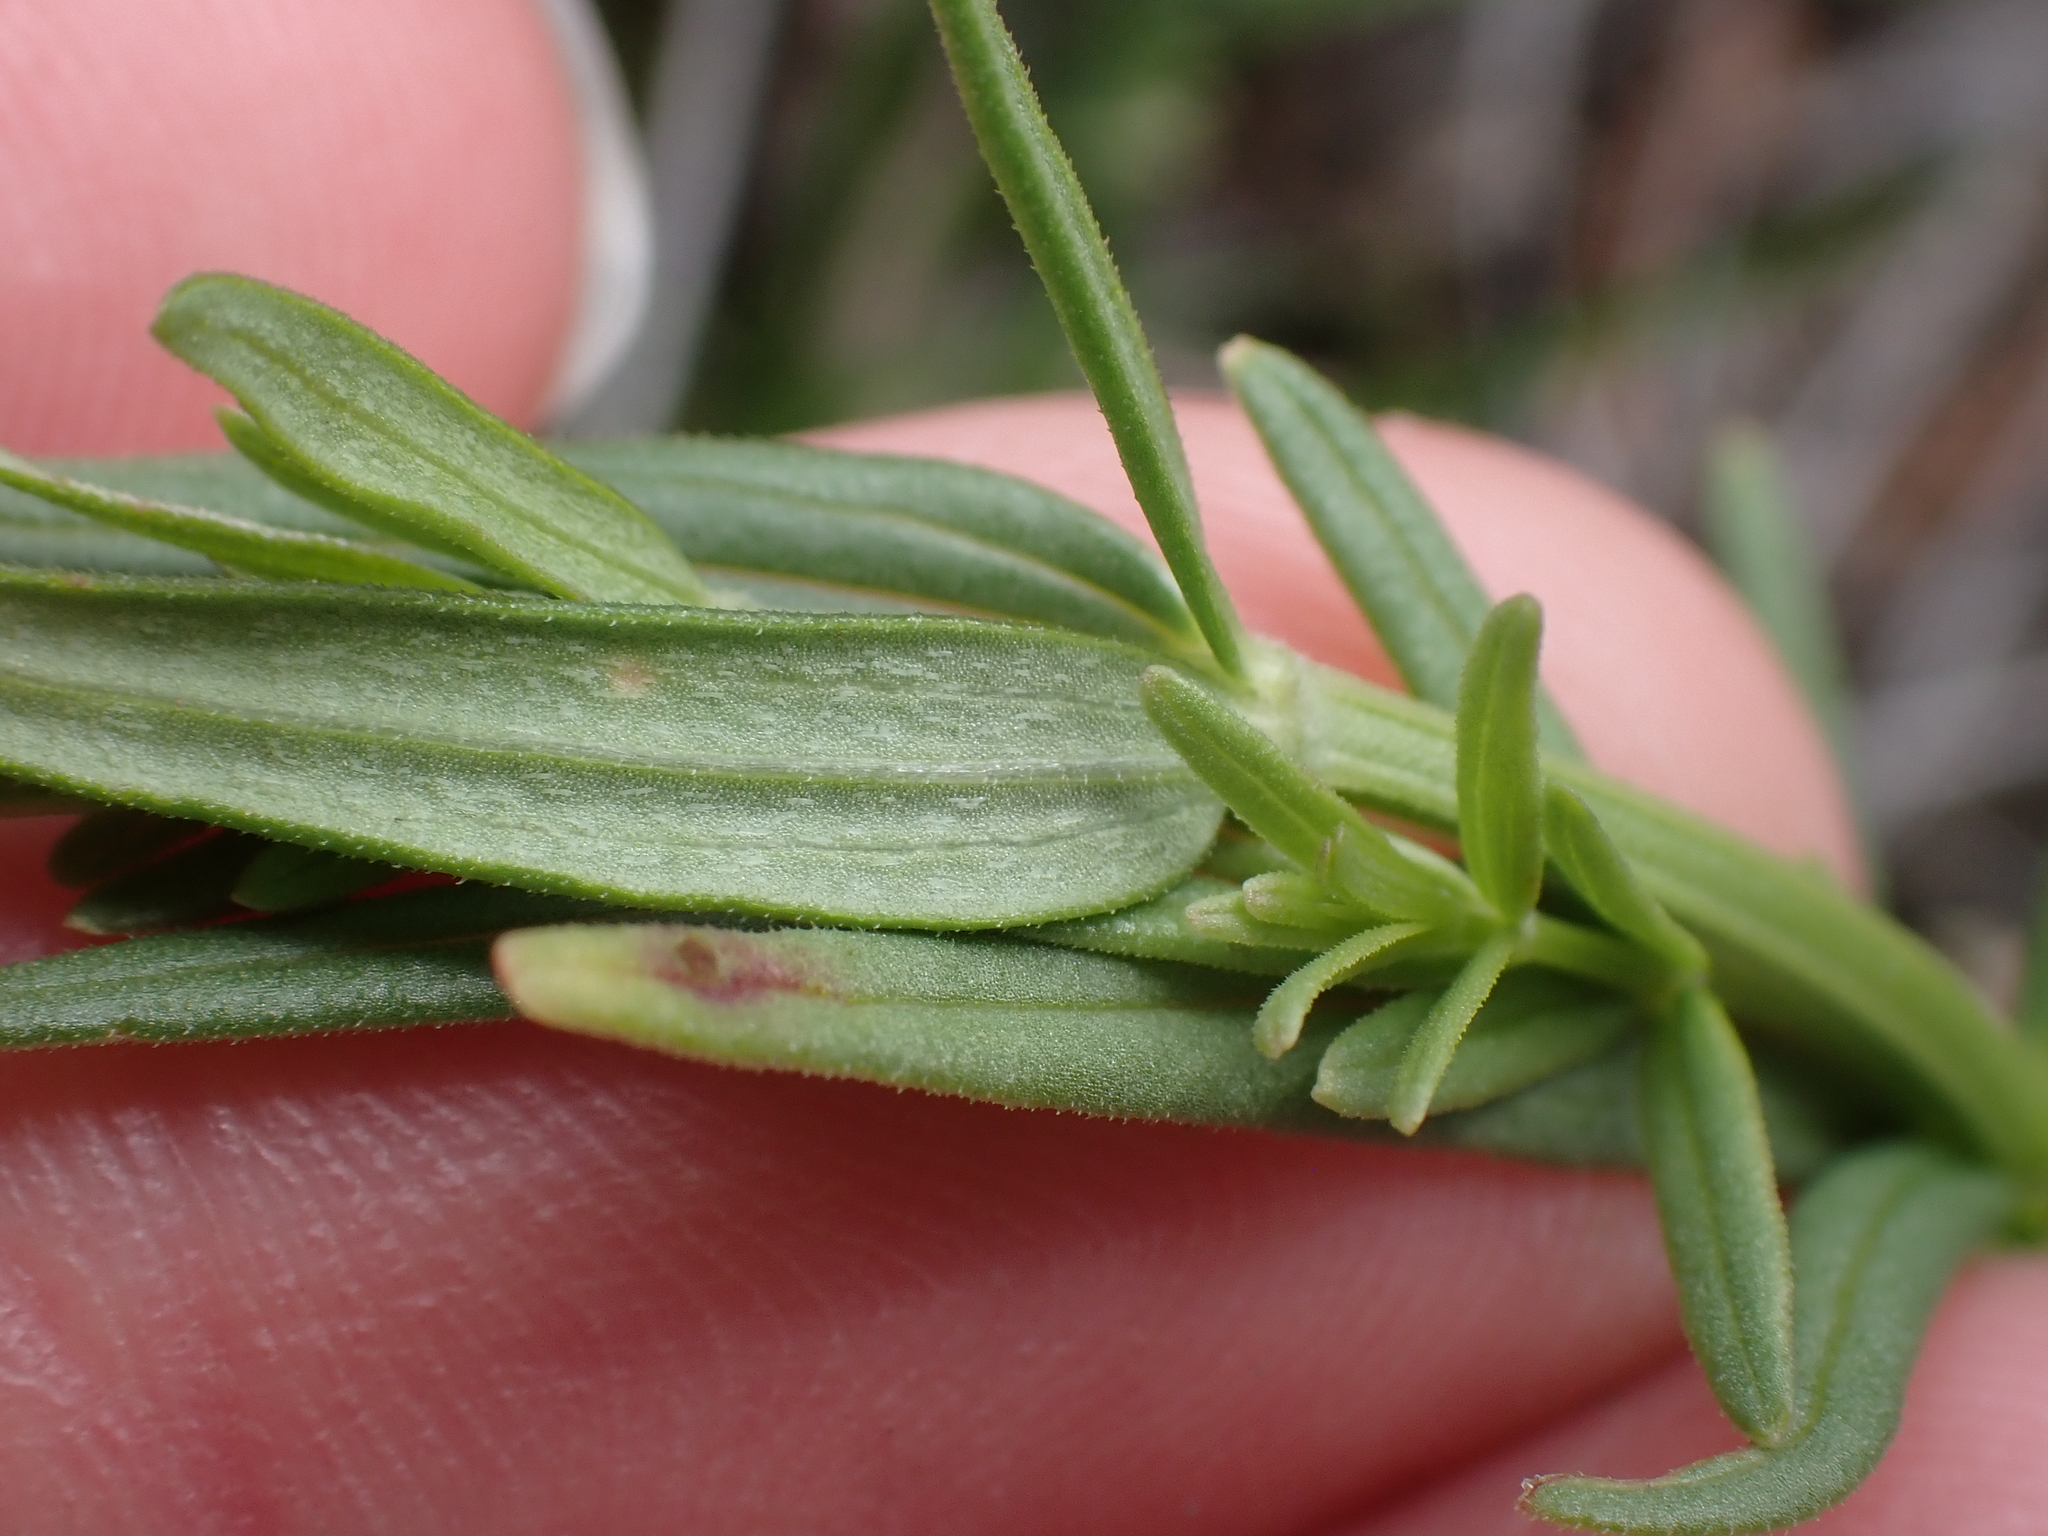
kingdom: Plantae
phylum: Tracheophyta
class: Magnoliopsida
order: Gentianales
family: Rubiaceae
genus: Galium
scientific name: Galium boreale
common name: Northern bedstraw
